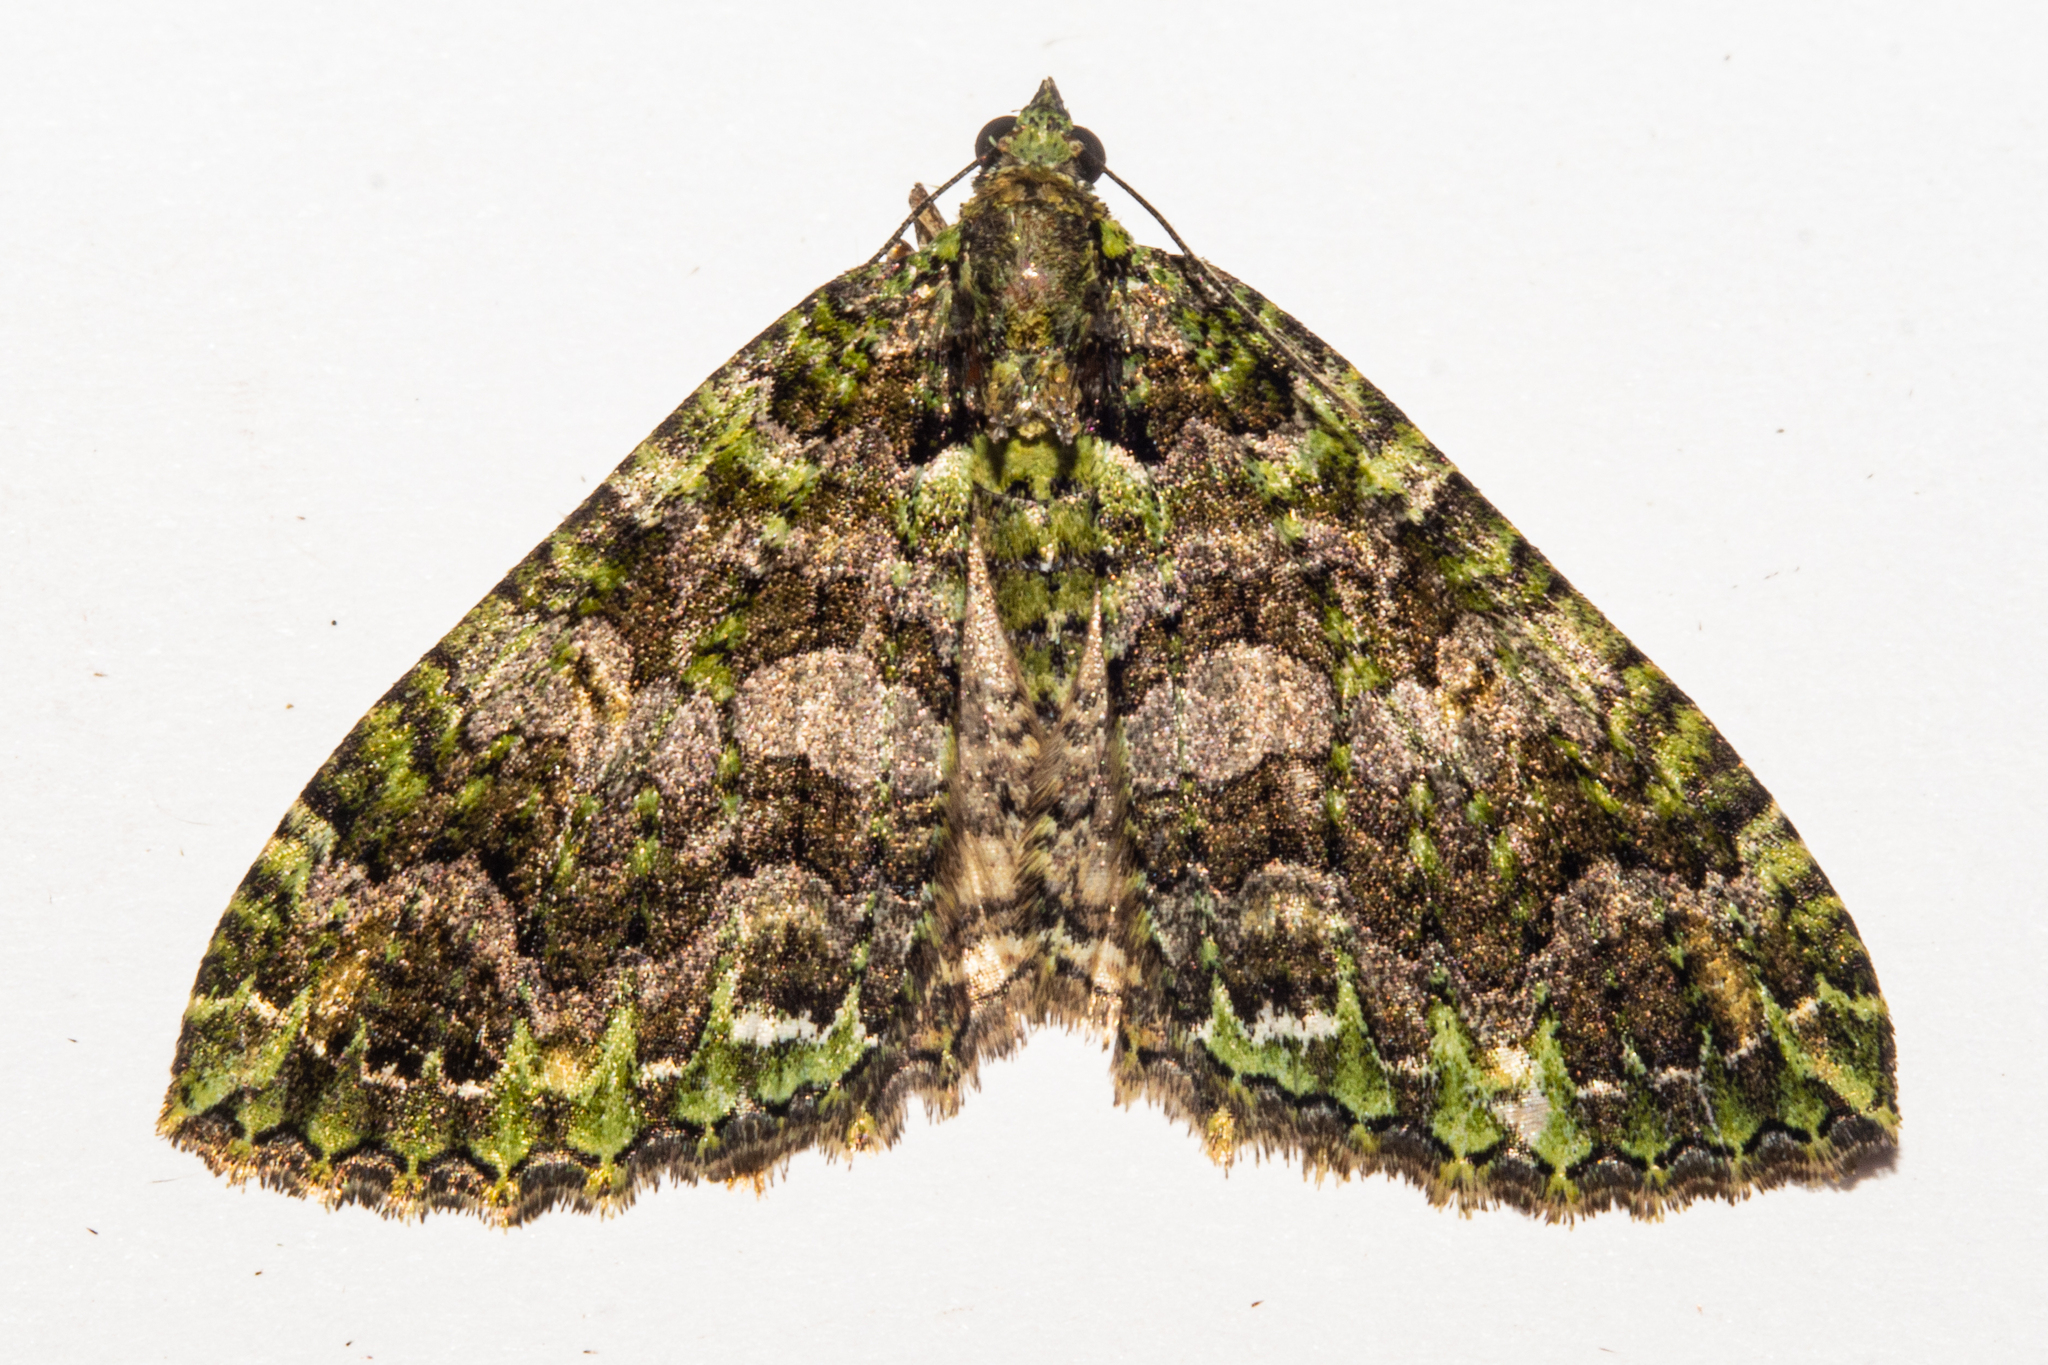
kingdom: Animalia
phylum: Arthropoda
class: Insecta
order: Lepidoptera
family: Geometridae
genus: Austrocidaria
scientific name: Austrocidaria similata
